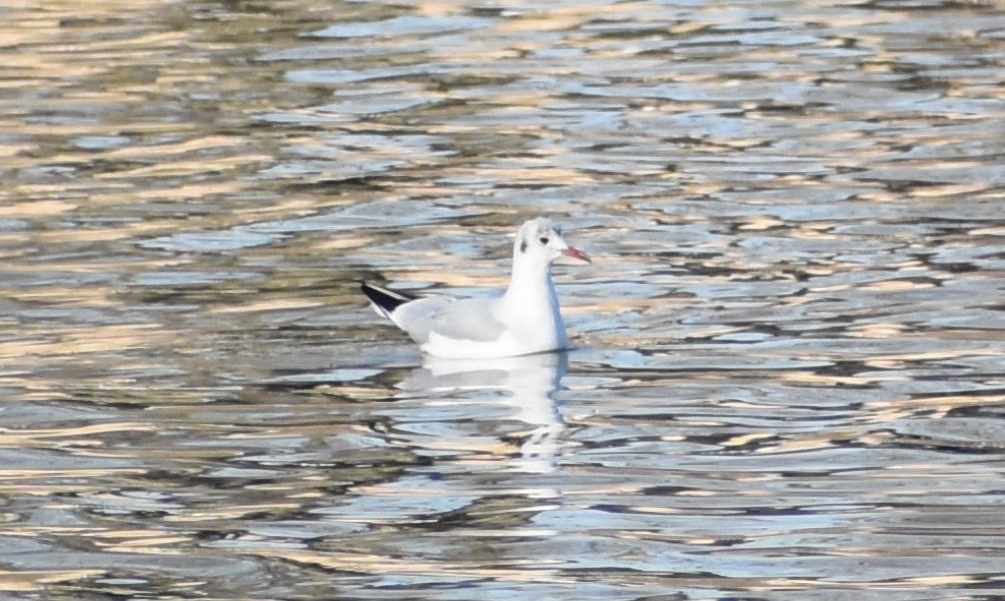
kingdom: Animalia
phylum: Chordata
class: Aves
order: Charadriiformes
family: Laridae
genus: Chroicocephalus
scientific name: Chroicocephalus ridibundus
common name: Black-headed gull
